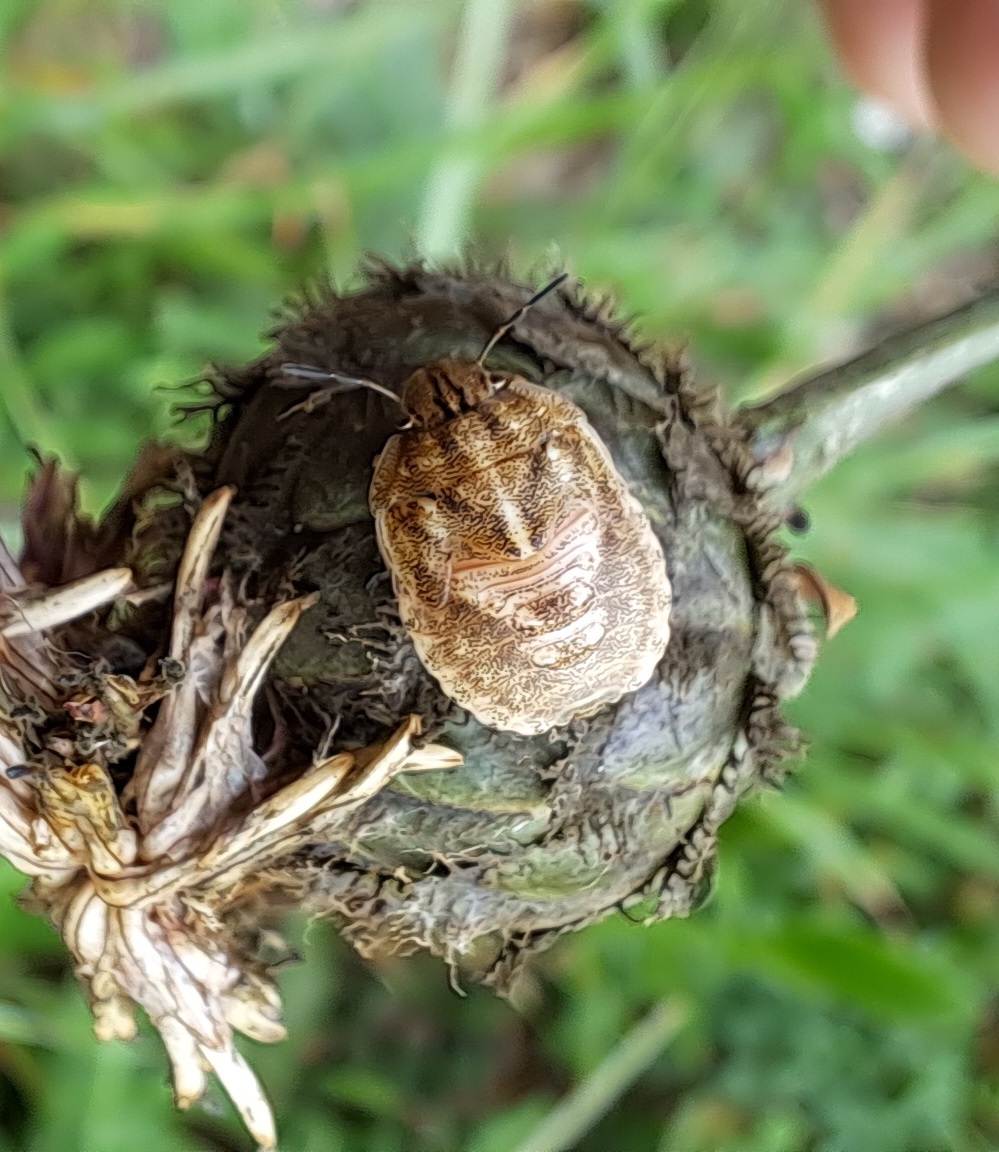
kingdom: Animalia
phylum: Arthropoda
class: Insecta
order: Hemiptera
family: Scutelleridae
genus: Eurygaster
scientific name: Eurygaster testudinaria
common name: Tortoise bug
